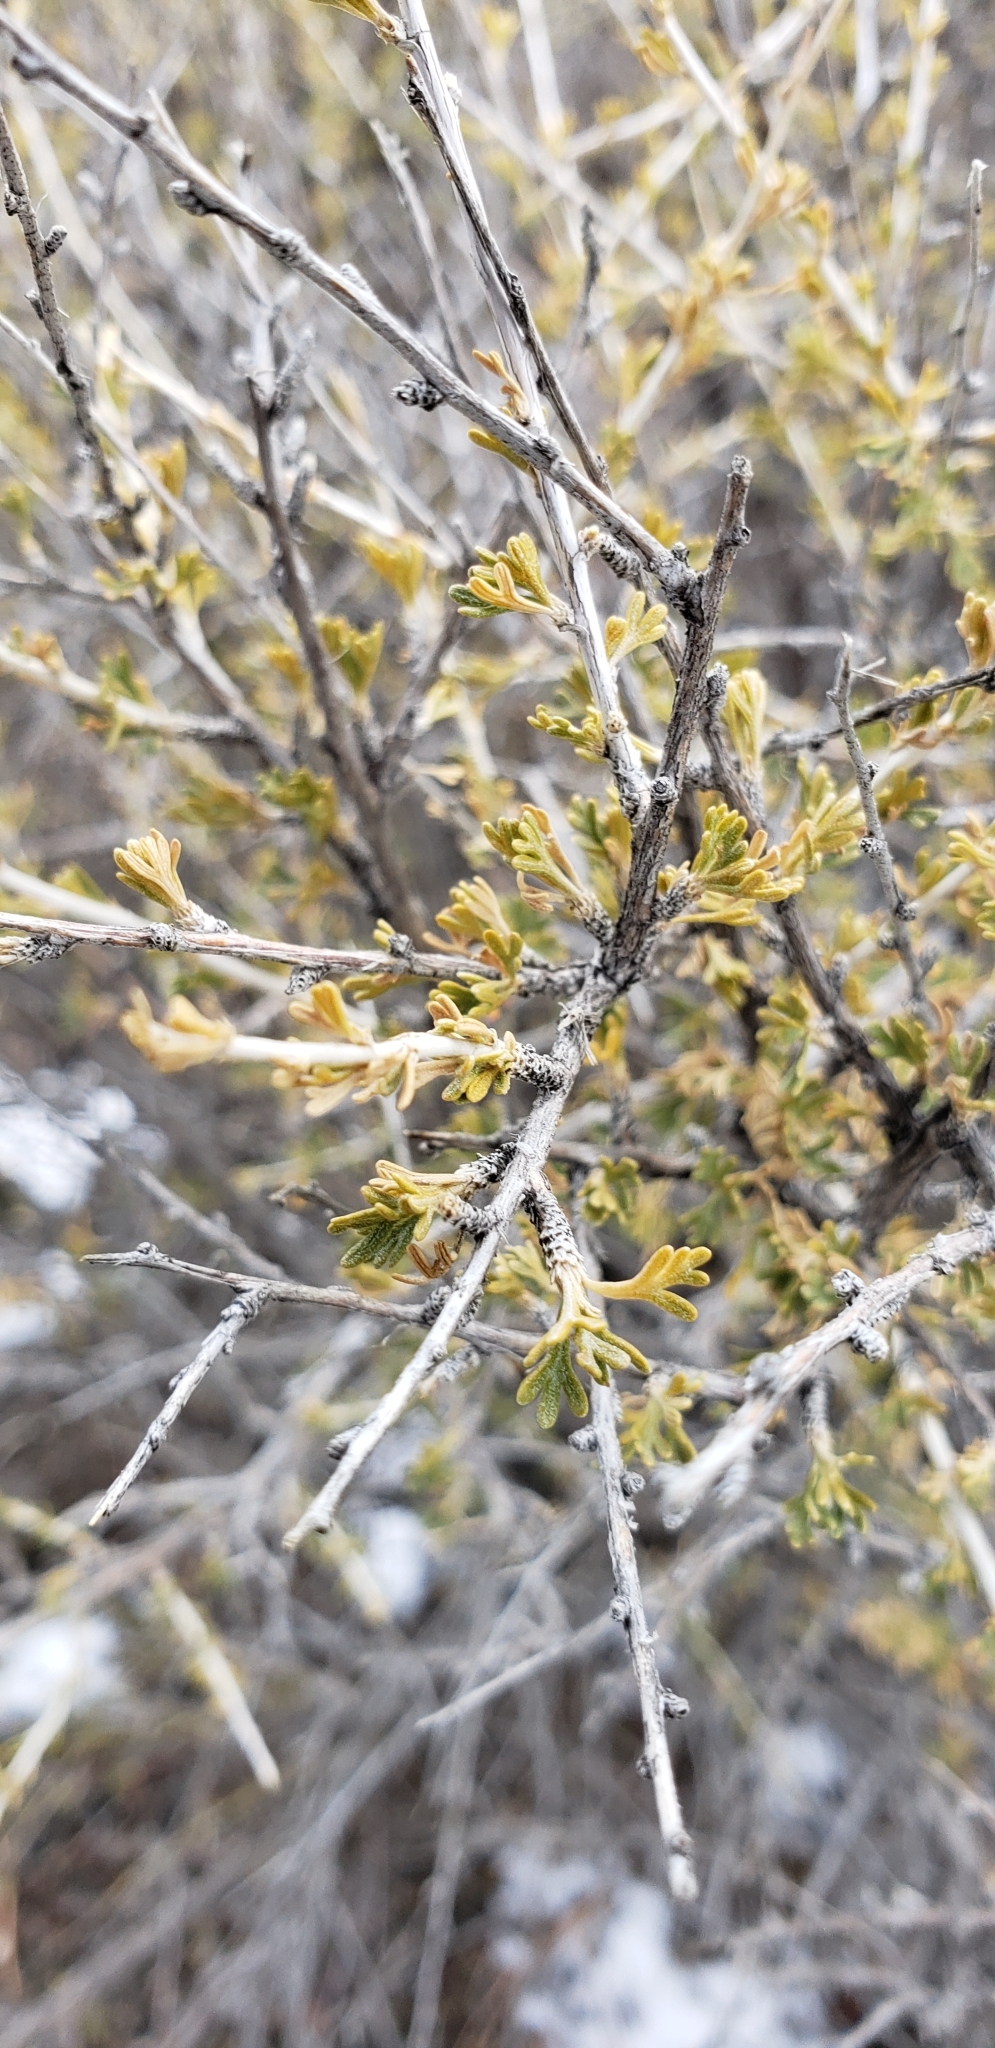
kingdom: Plantae
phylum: Tracheophyta
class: Magnoliopsida
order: Rosales
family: Rosaceae
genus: Fallugia
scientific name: Fallugia paradoxa
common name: Apache-plume
